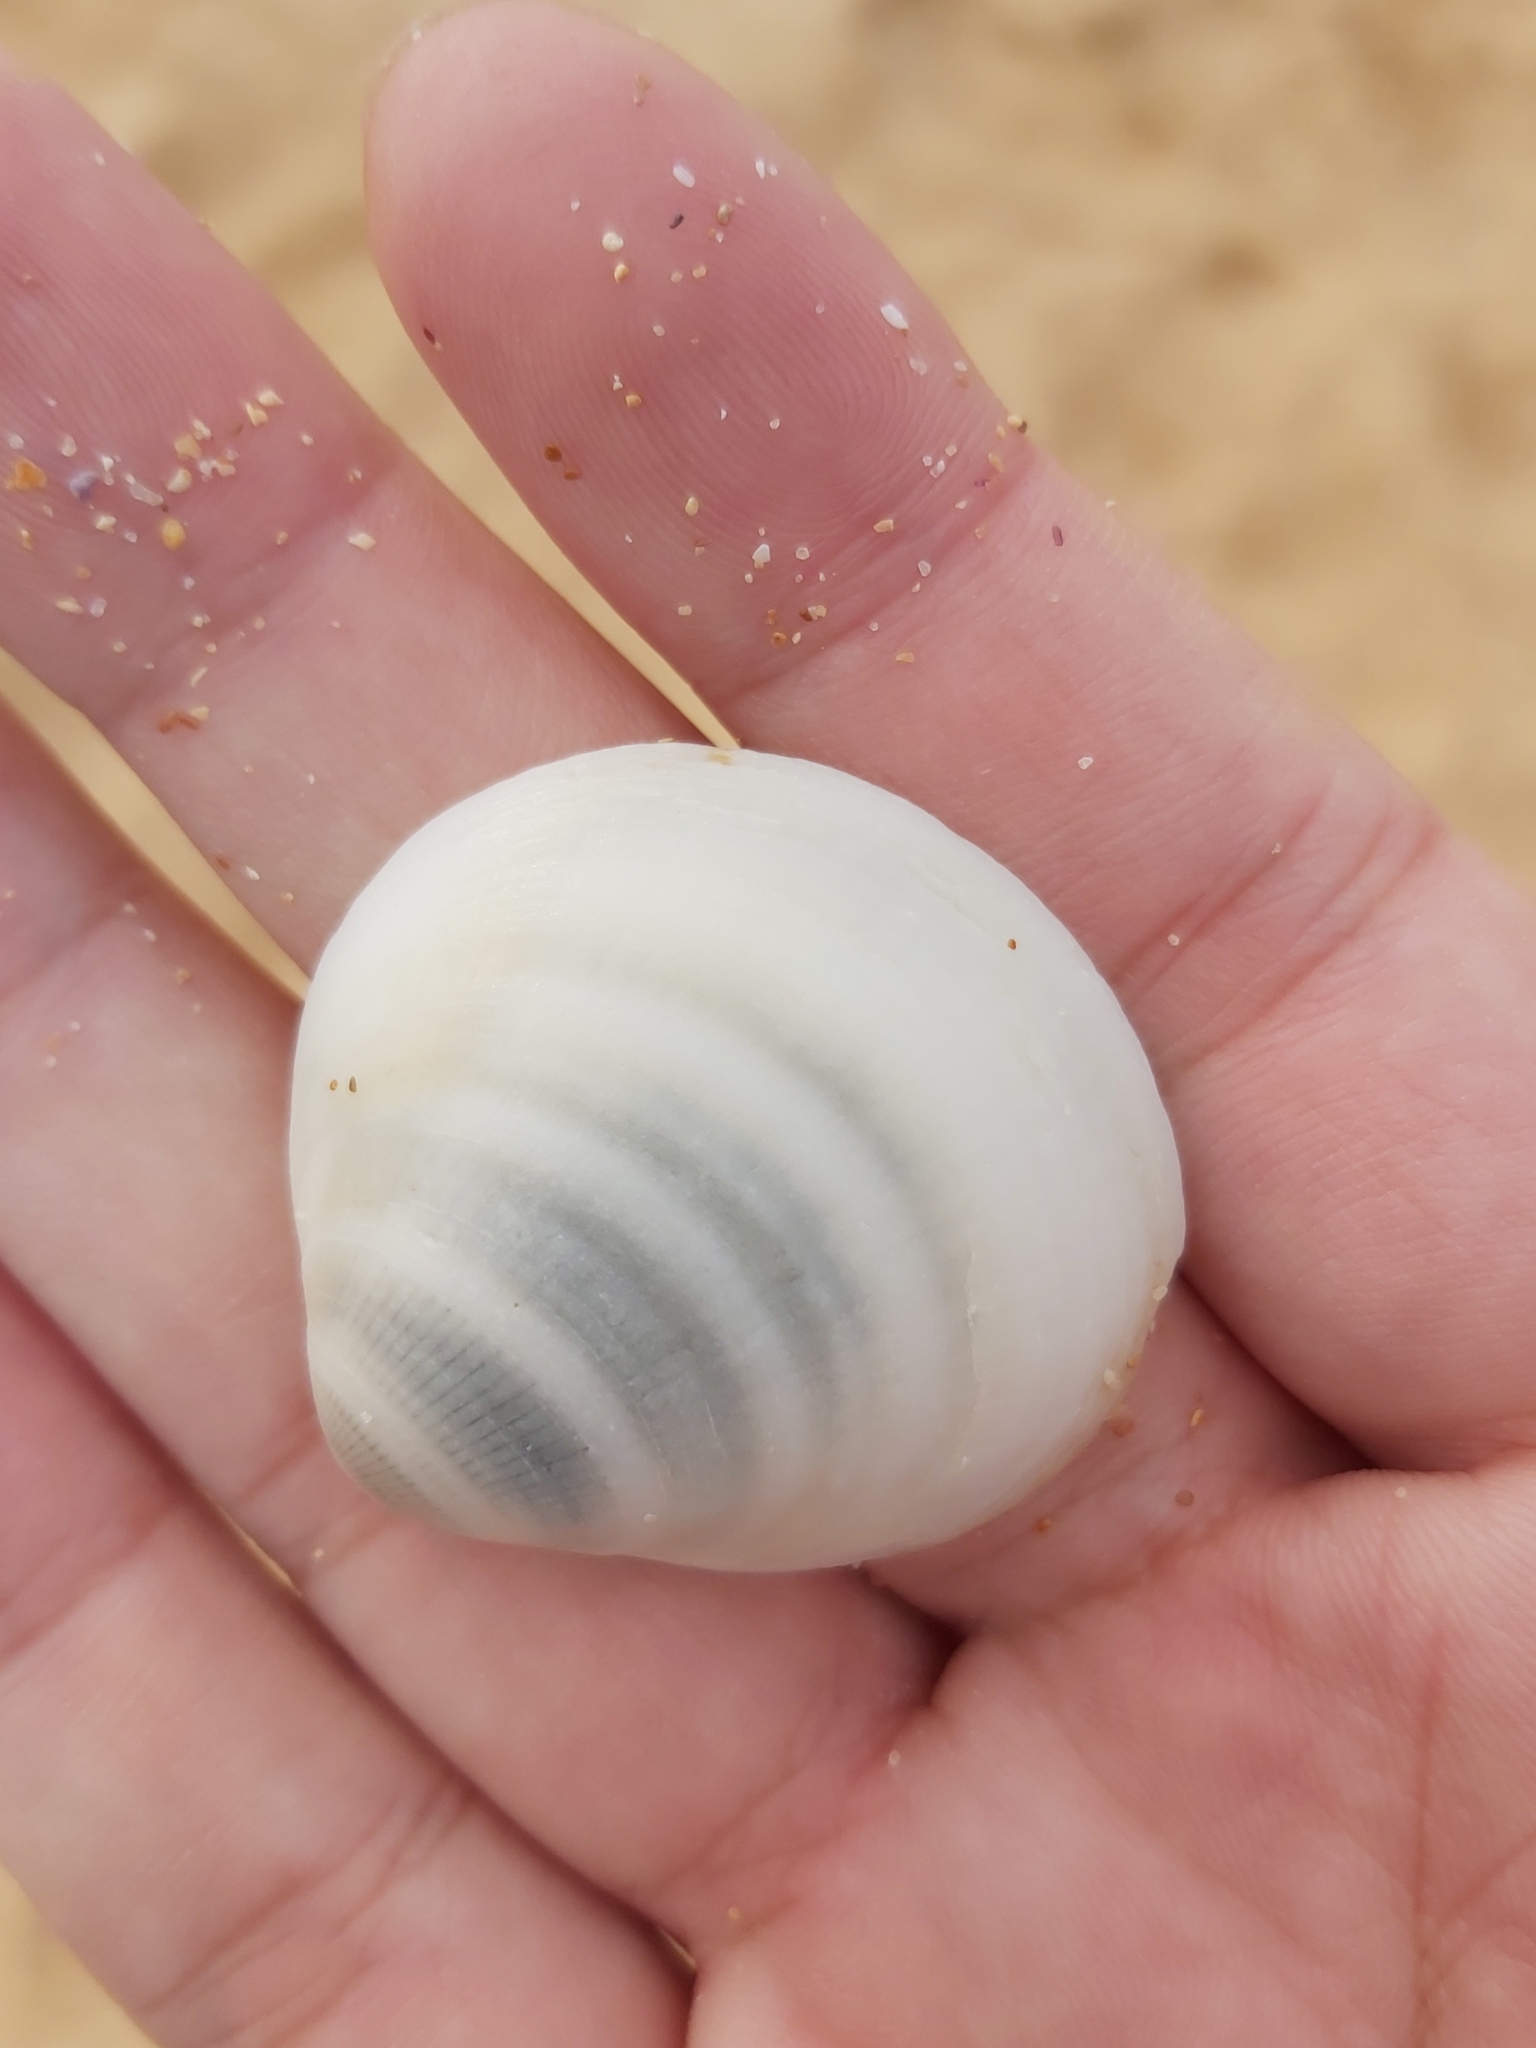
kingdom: Animalia
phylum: Mollusca
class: Bivalvia
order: Arcida
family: Glycymerididae
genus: Glycymeris
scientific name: Glycymeris grayana
